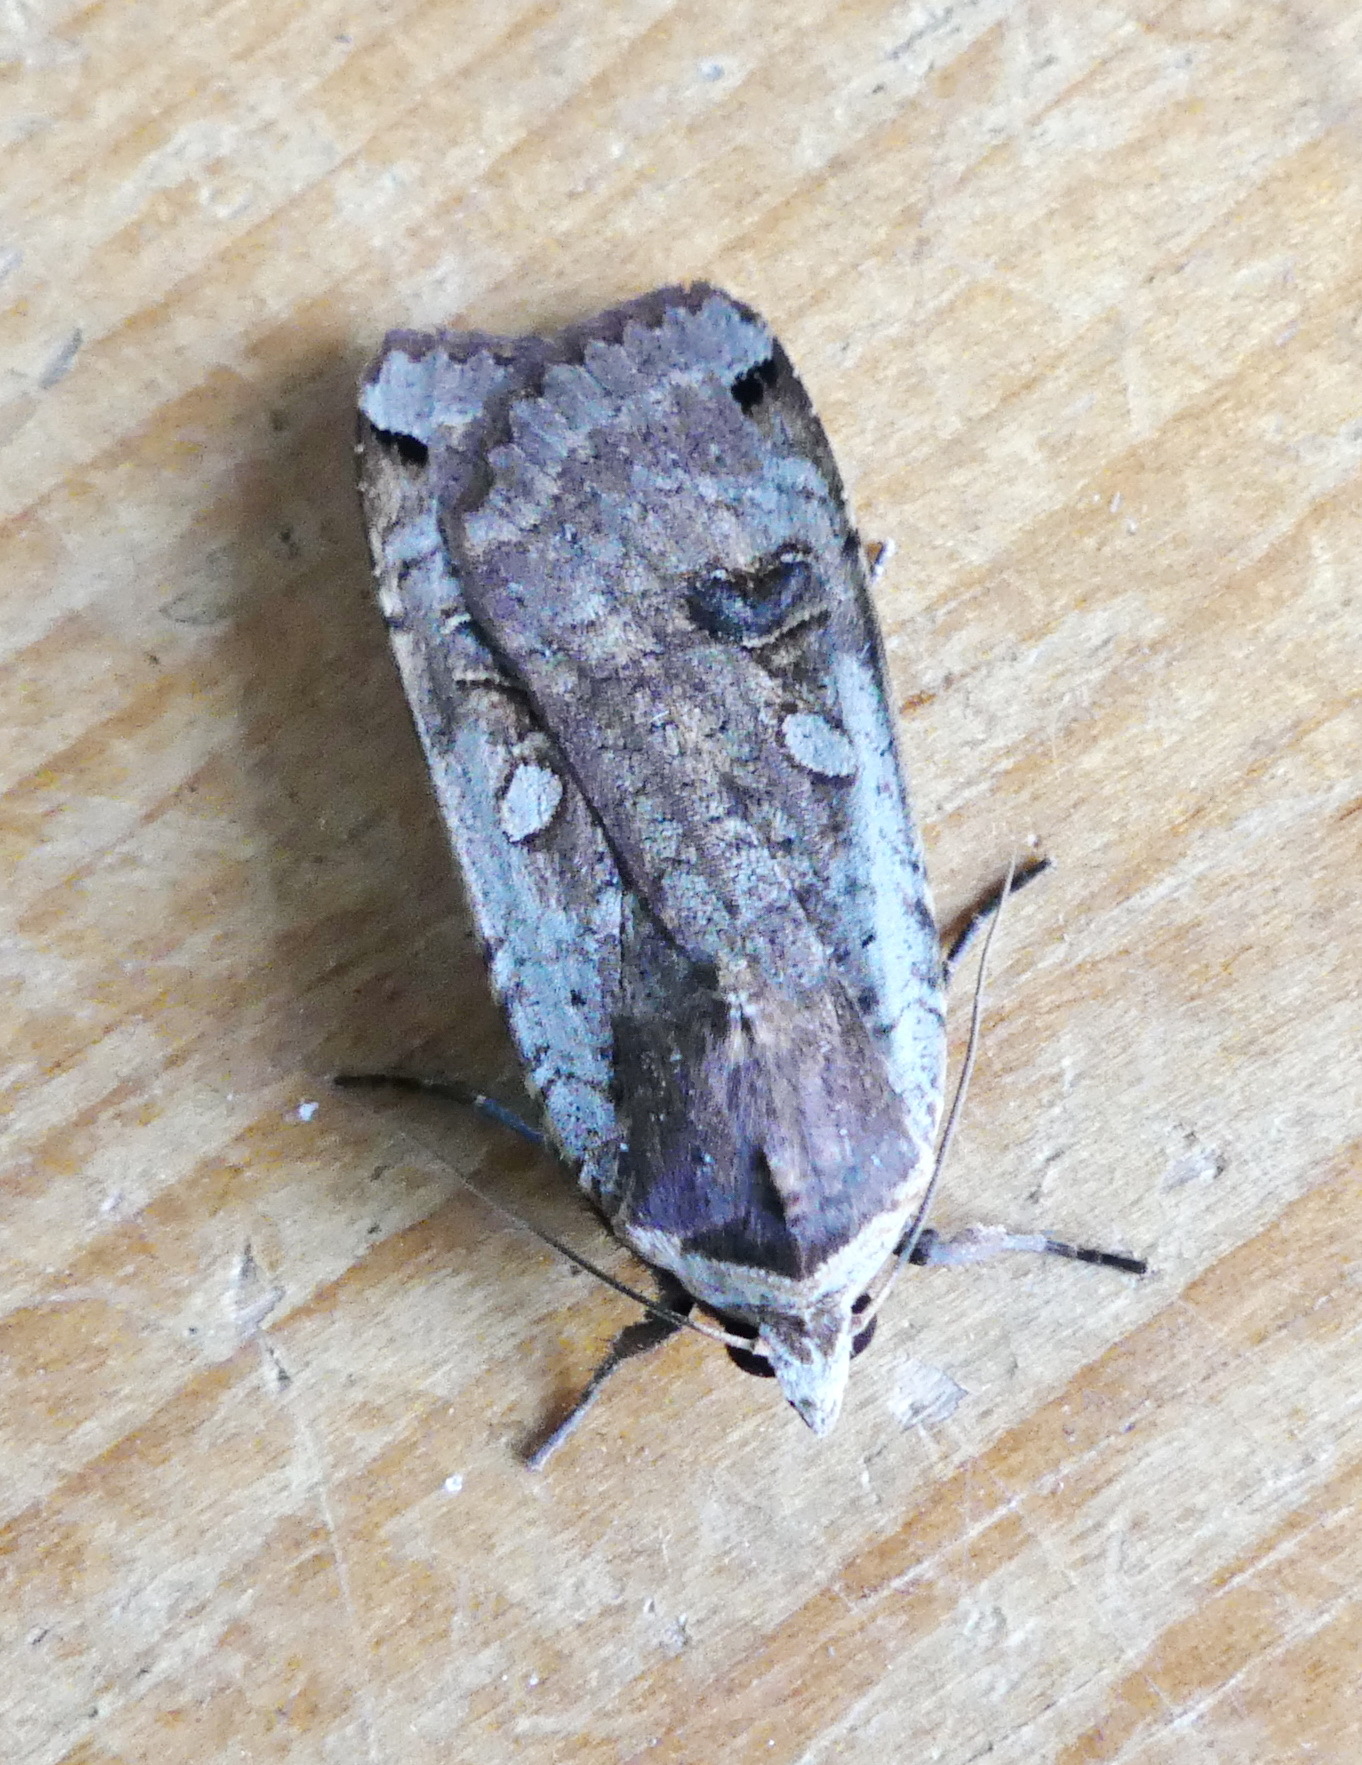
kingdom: Animalia
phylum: Arthropoda
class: Insecta
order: Lepidoptera
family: Noctuidae
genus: Noctua
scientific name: Noctua pronuba
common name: Large yellow underwing
